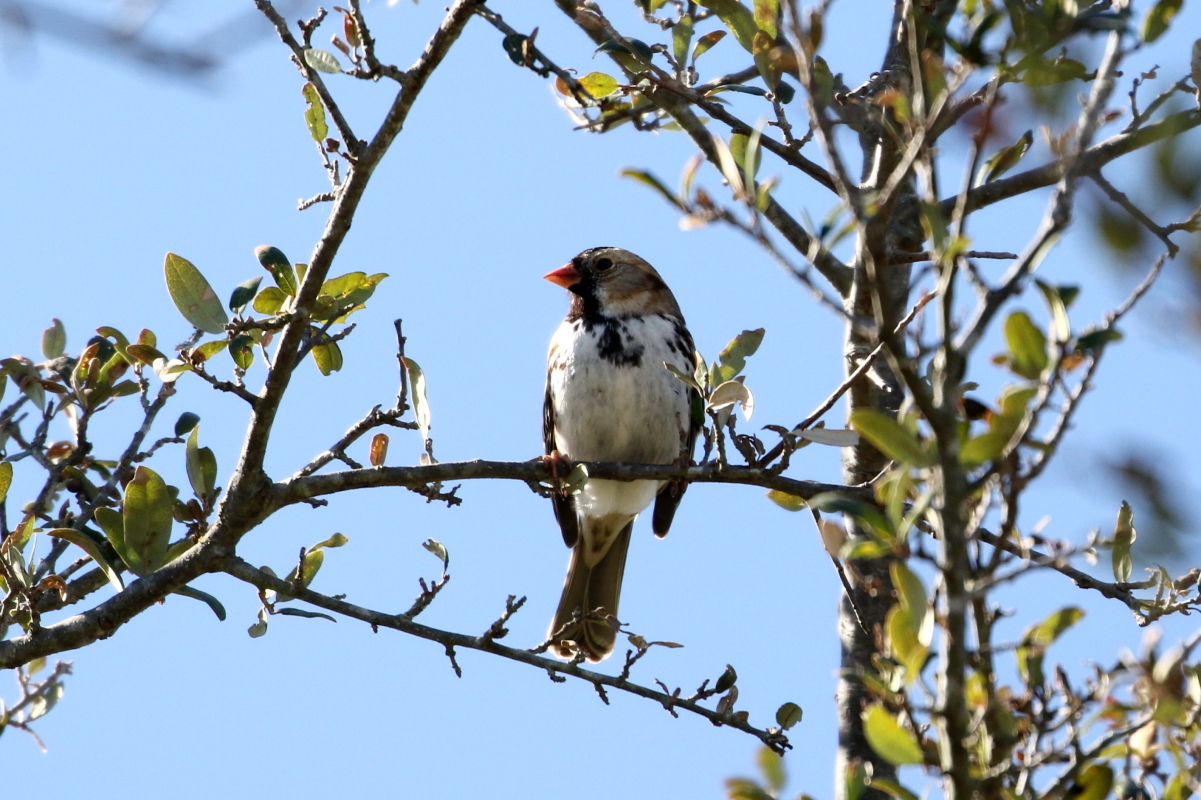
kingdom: Animalia
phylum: Chordata
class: Aves
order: Passeriformes
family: Passerellidae
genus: Zonotrichia
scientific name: Zonotrichia querula
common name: Harris's sparrow
